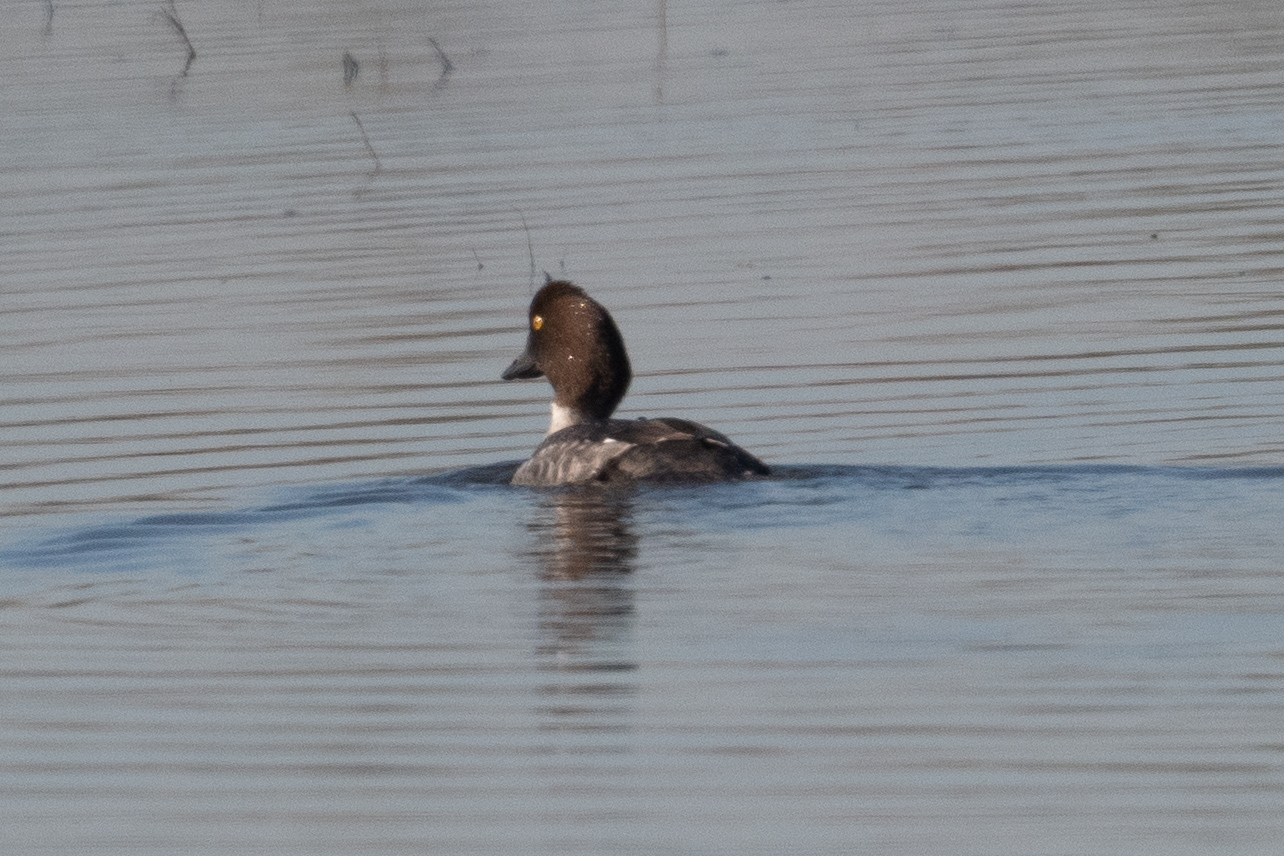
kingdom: Animalia
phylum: Chordata
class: Aves
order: Anseriformes
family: Anatidae
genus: Bucephala
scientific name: Bucephala clangula
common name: Common goldeneye
